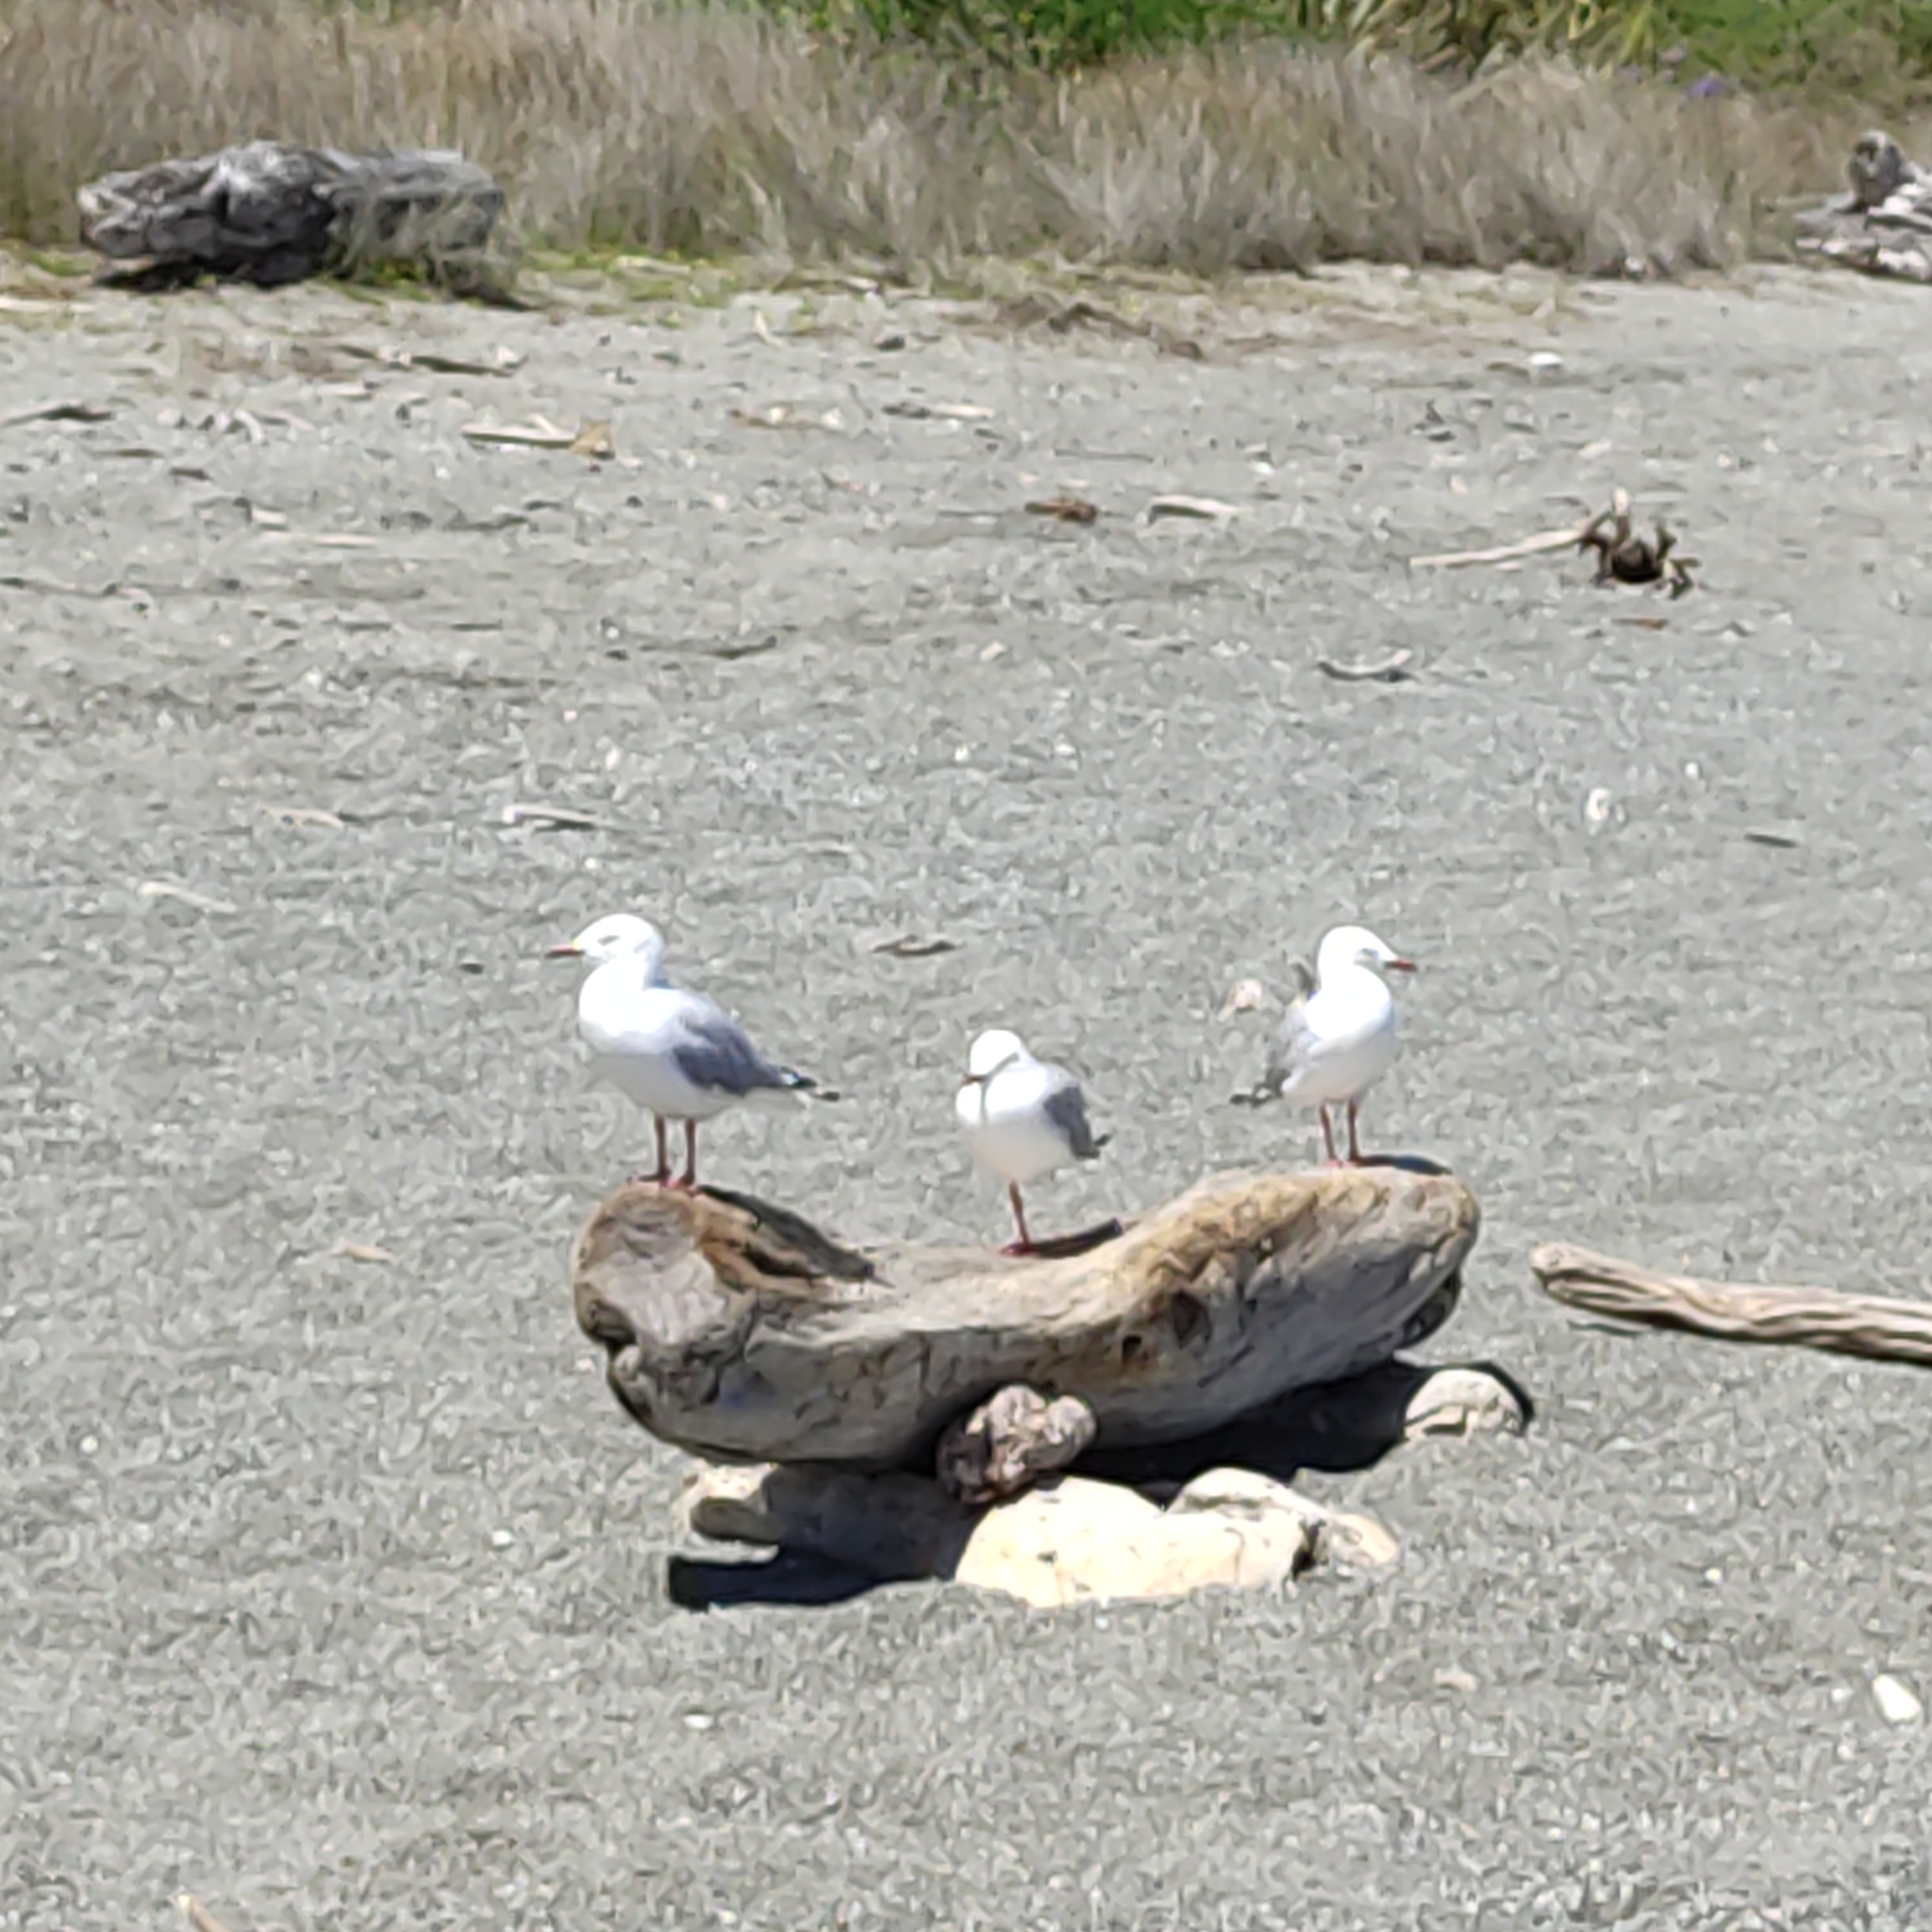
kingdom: Animalia
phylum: Chordata
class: Aves
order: Charadriiformes
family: Laridae
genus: Chroicocephalus
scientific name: Chroicocephalus novaehollandiae
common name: Silver gull
